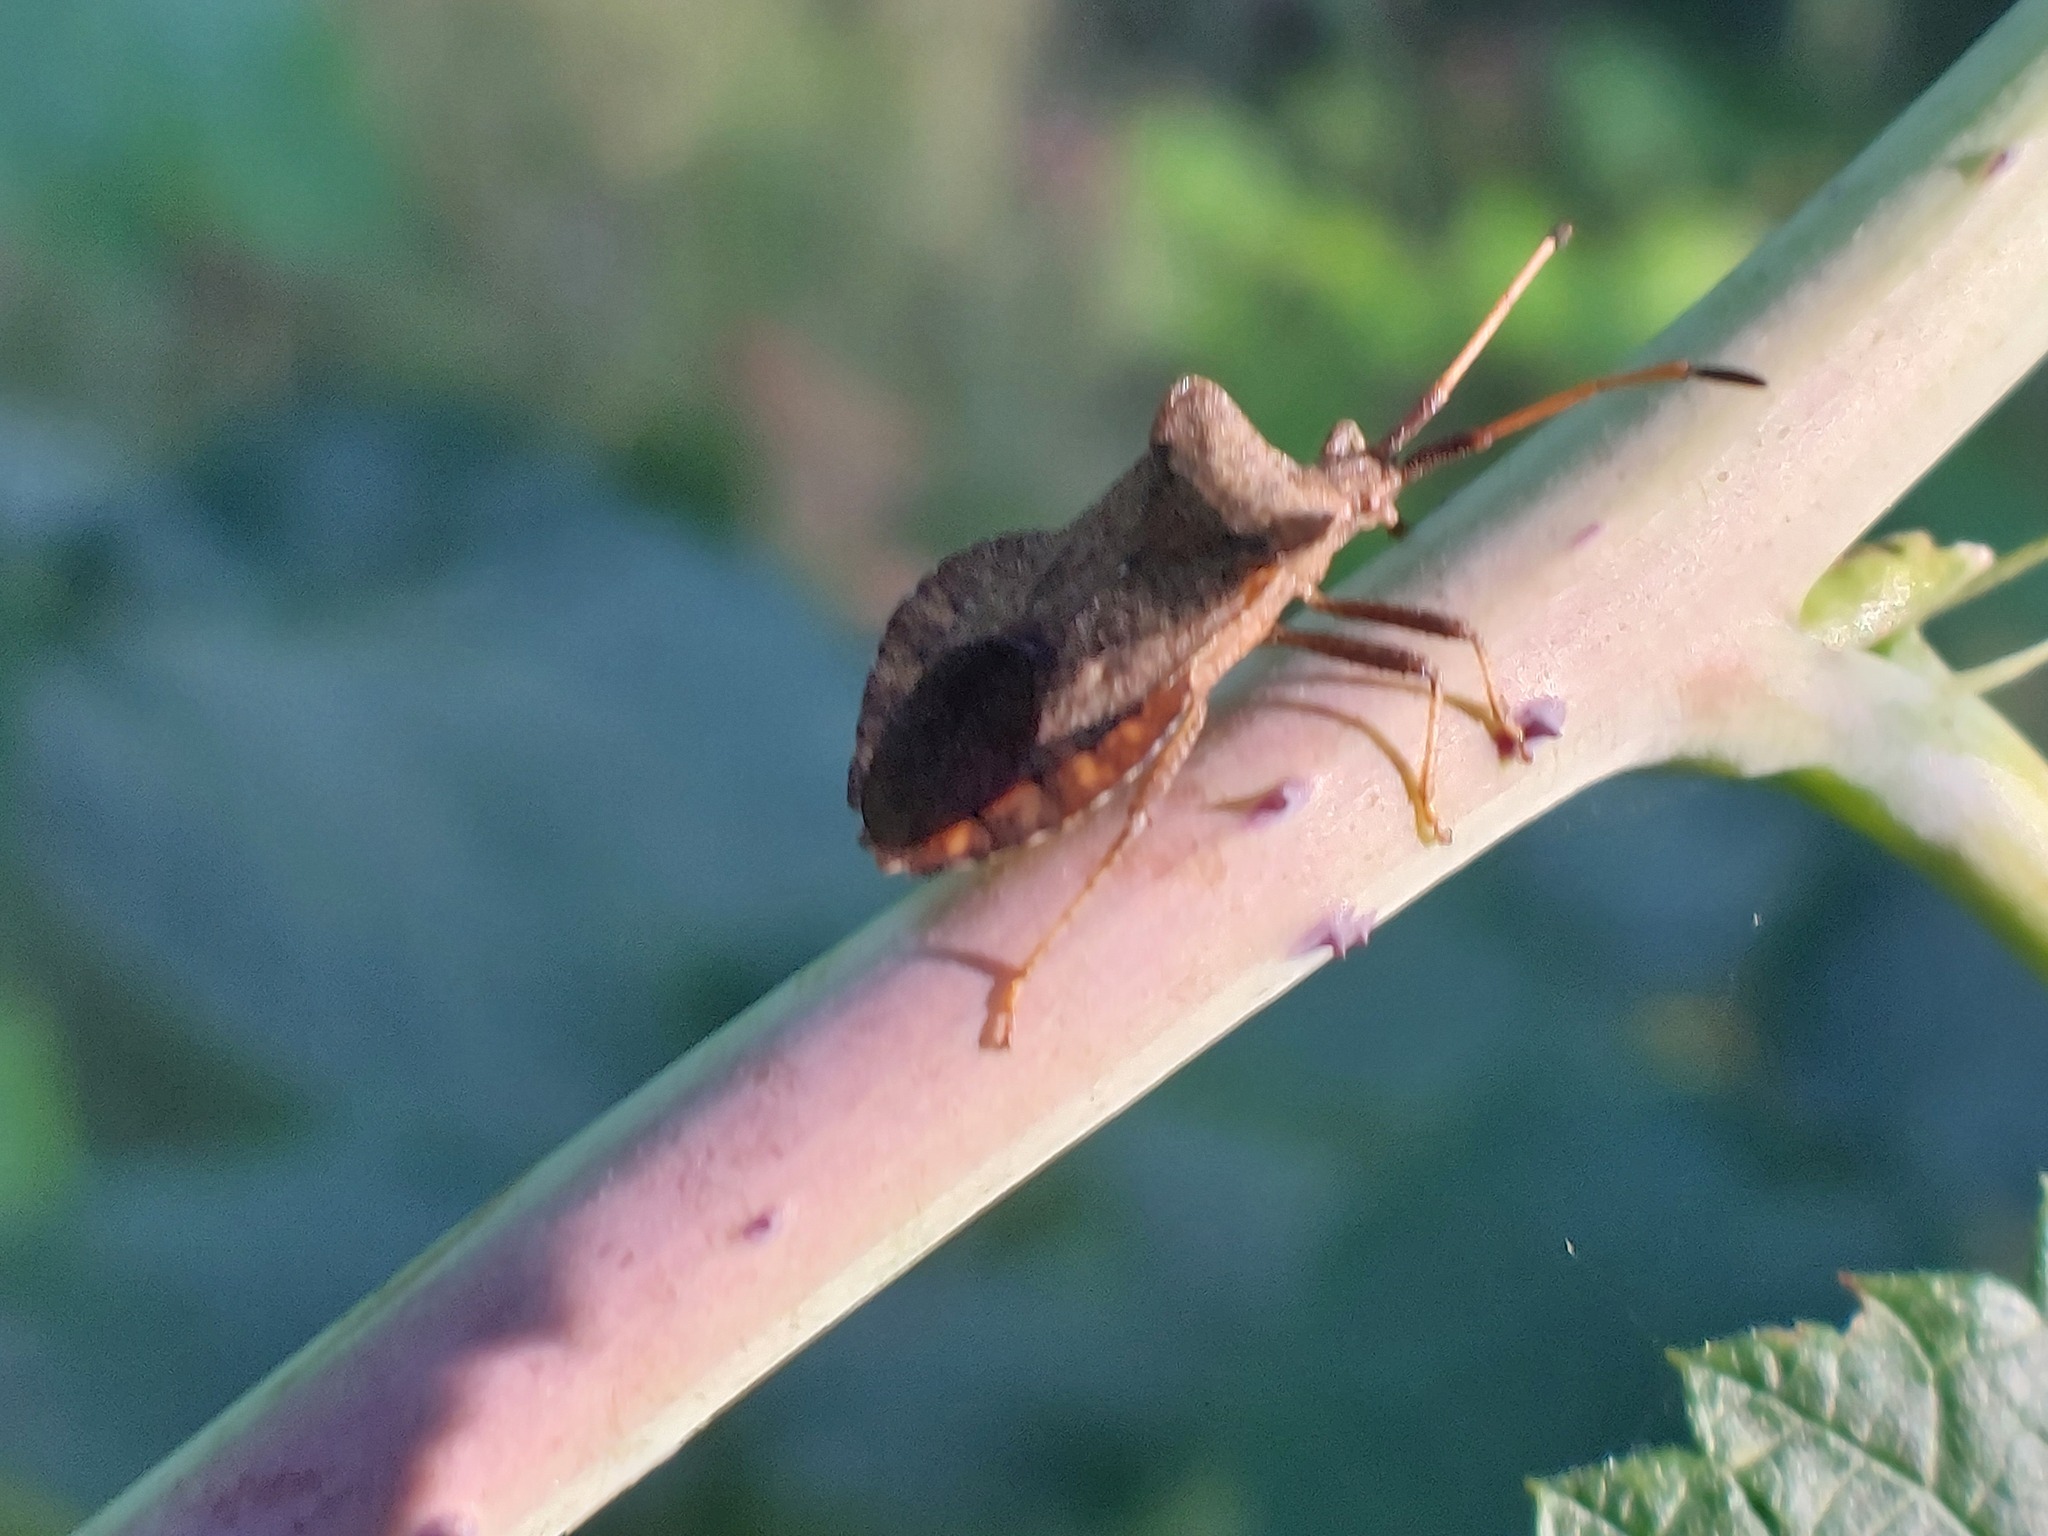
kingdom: Animalia
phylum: Arthropoda
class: Insecta
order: Hemiptera
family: Coreidae
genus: Coreus
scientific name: Coreus marginatus
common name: Dock bug
